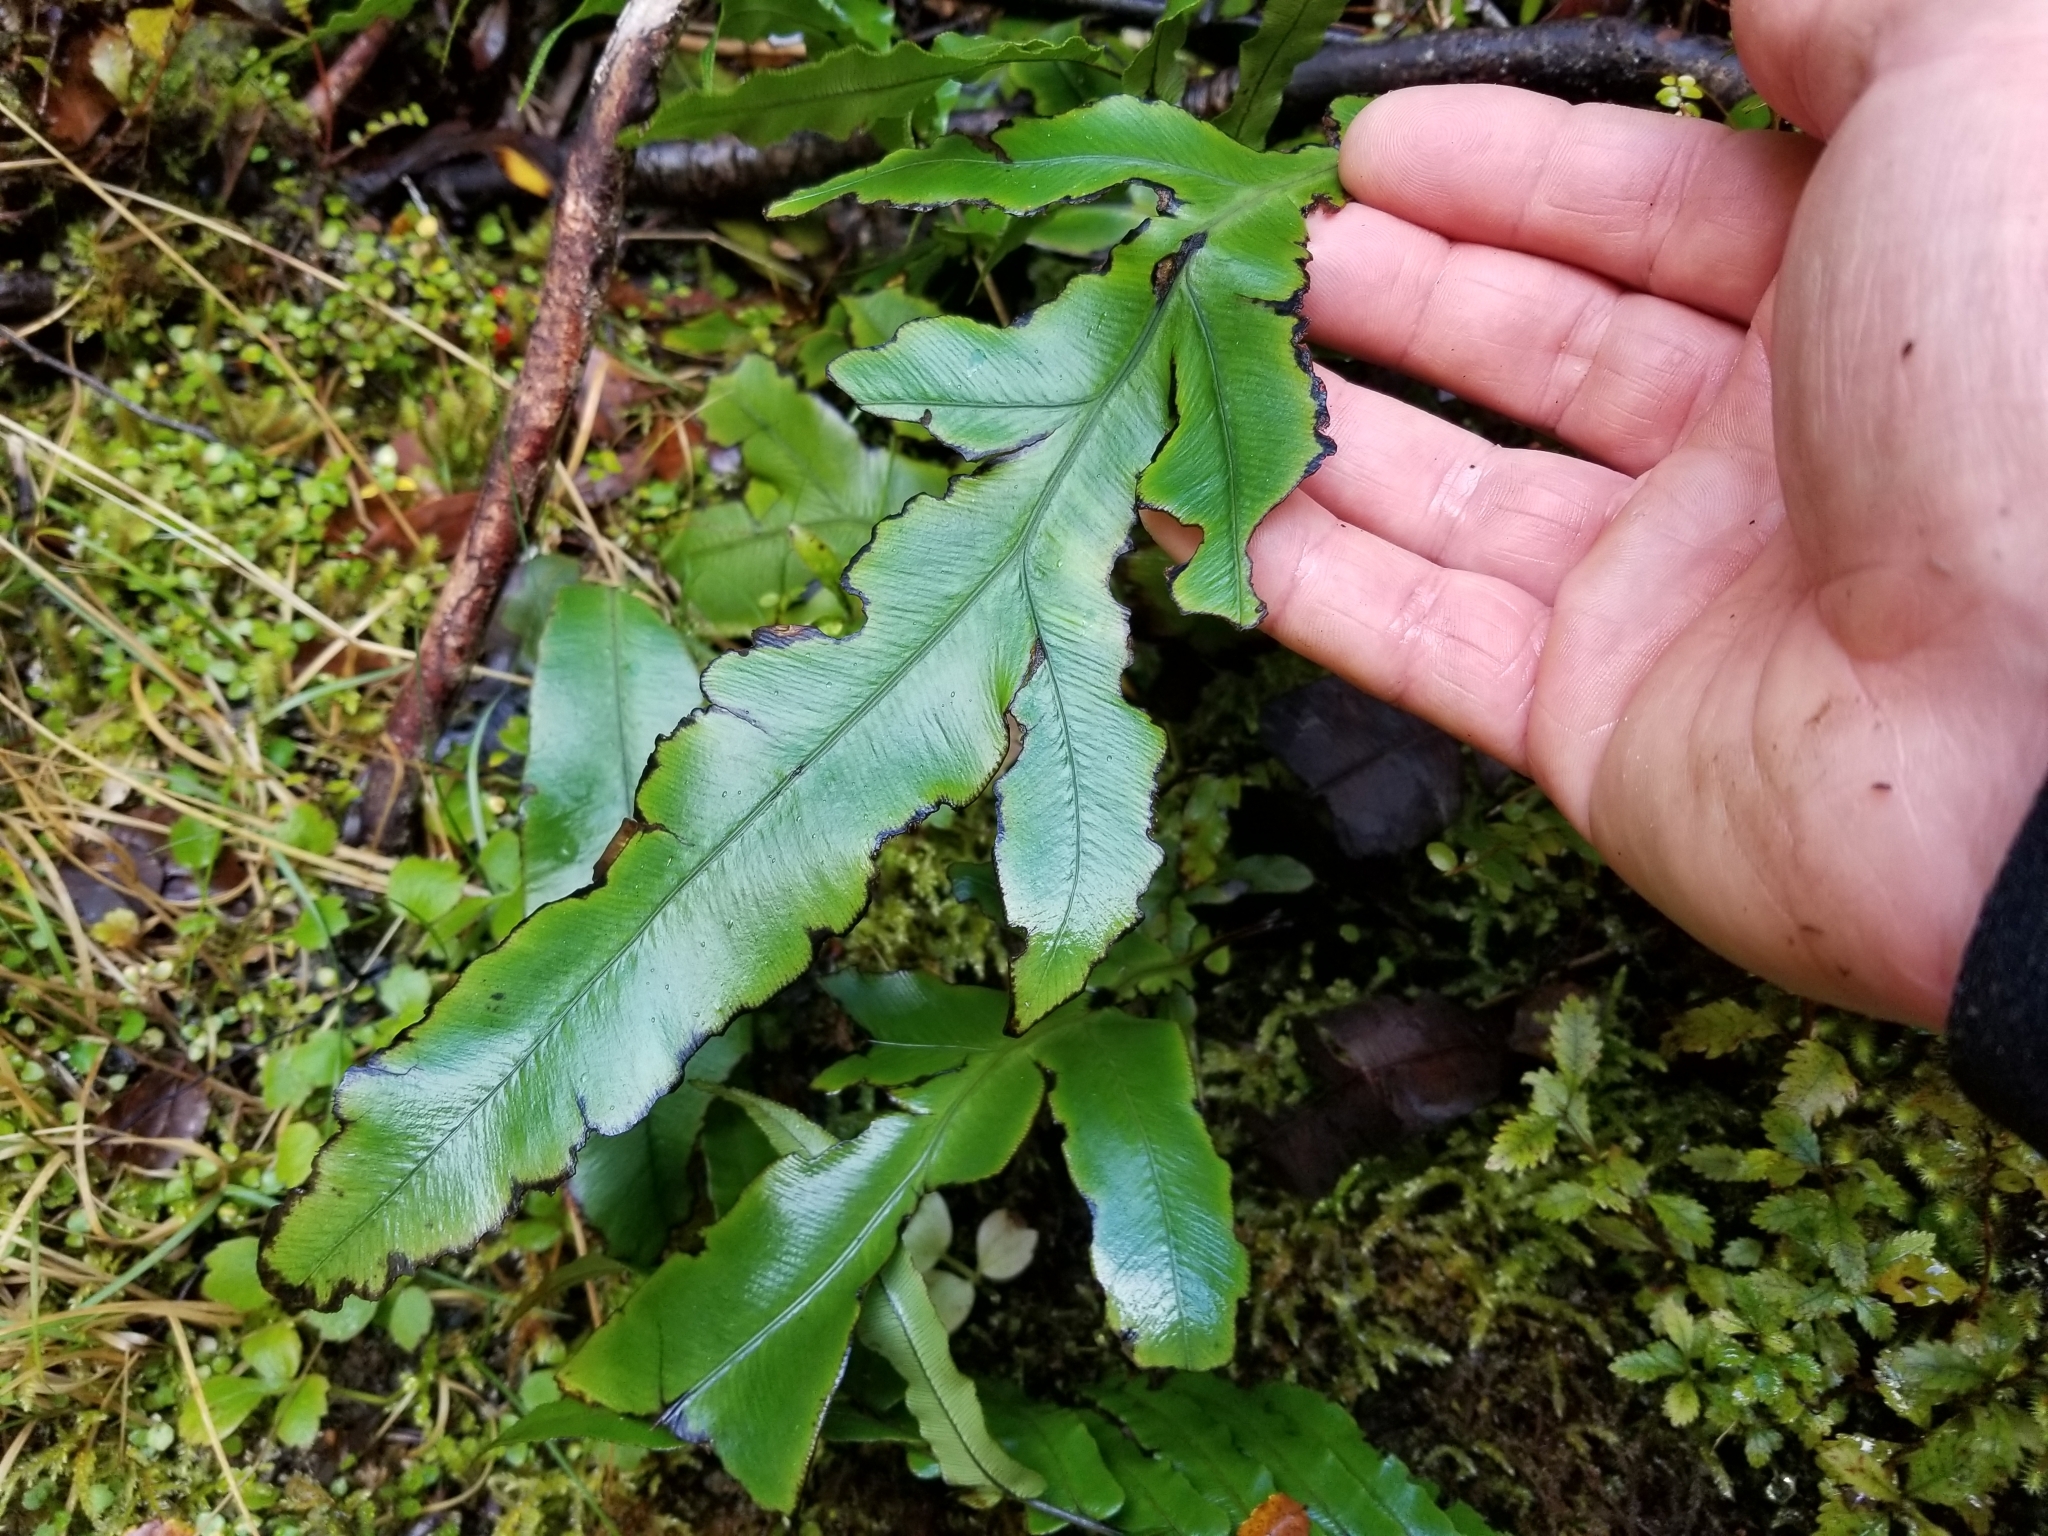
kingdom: Plantae
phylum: Tracheophyta
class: Polypodiopsida
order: Polypodiales
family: Blechnaceae
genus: Austroblechnum
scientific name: Austroblechnum colensoi
